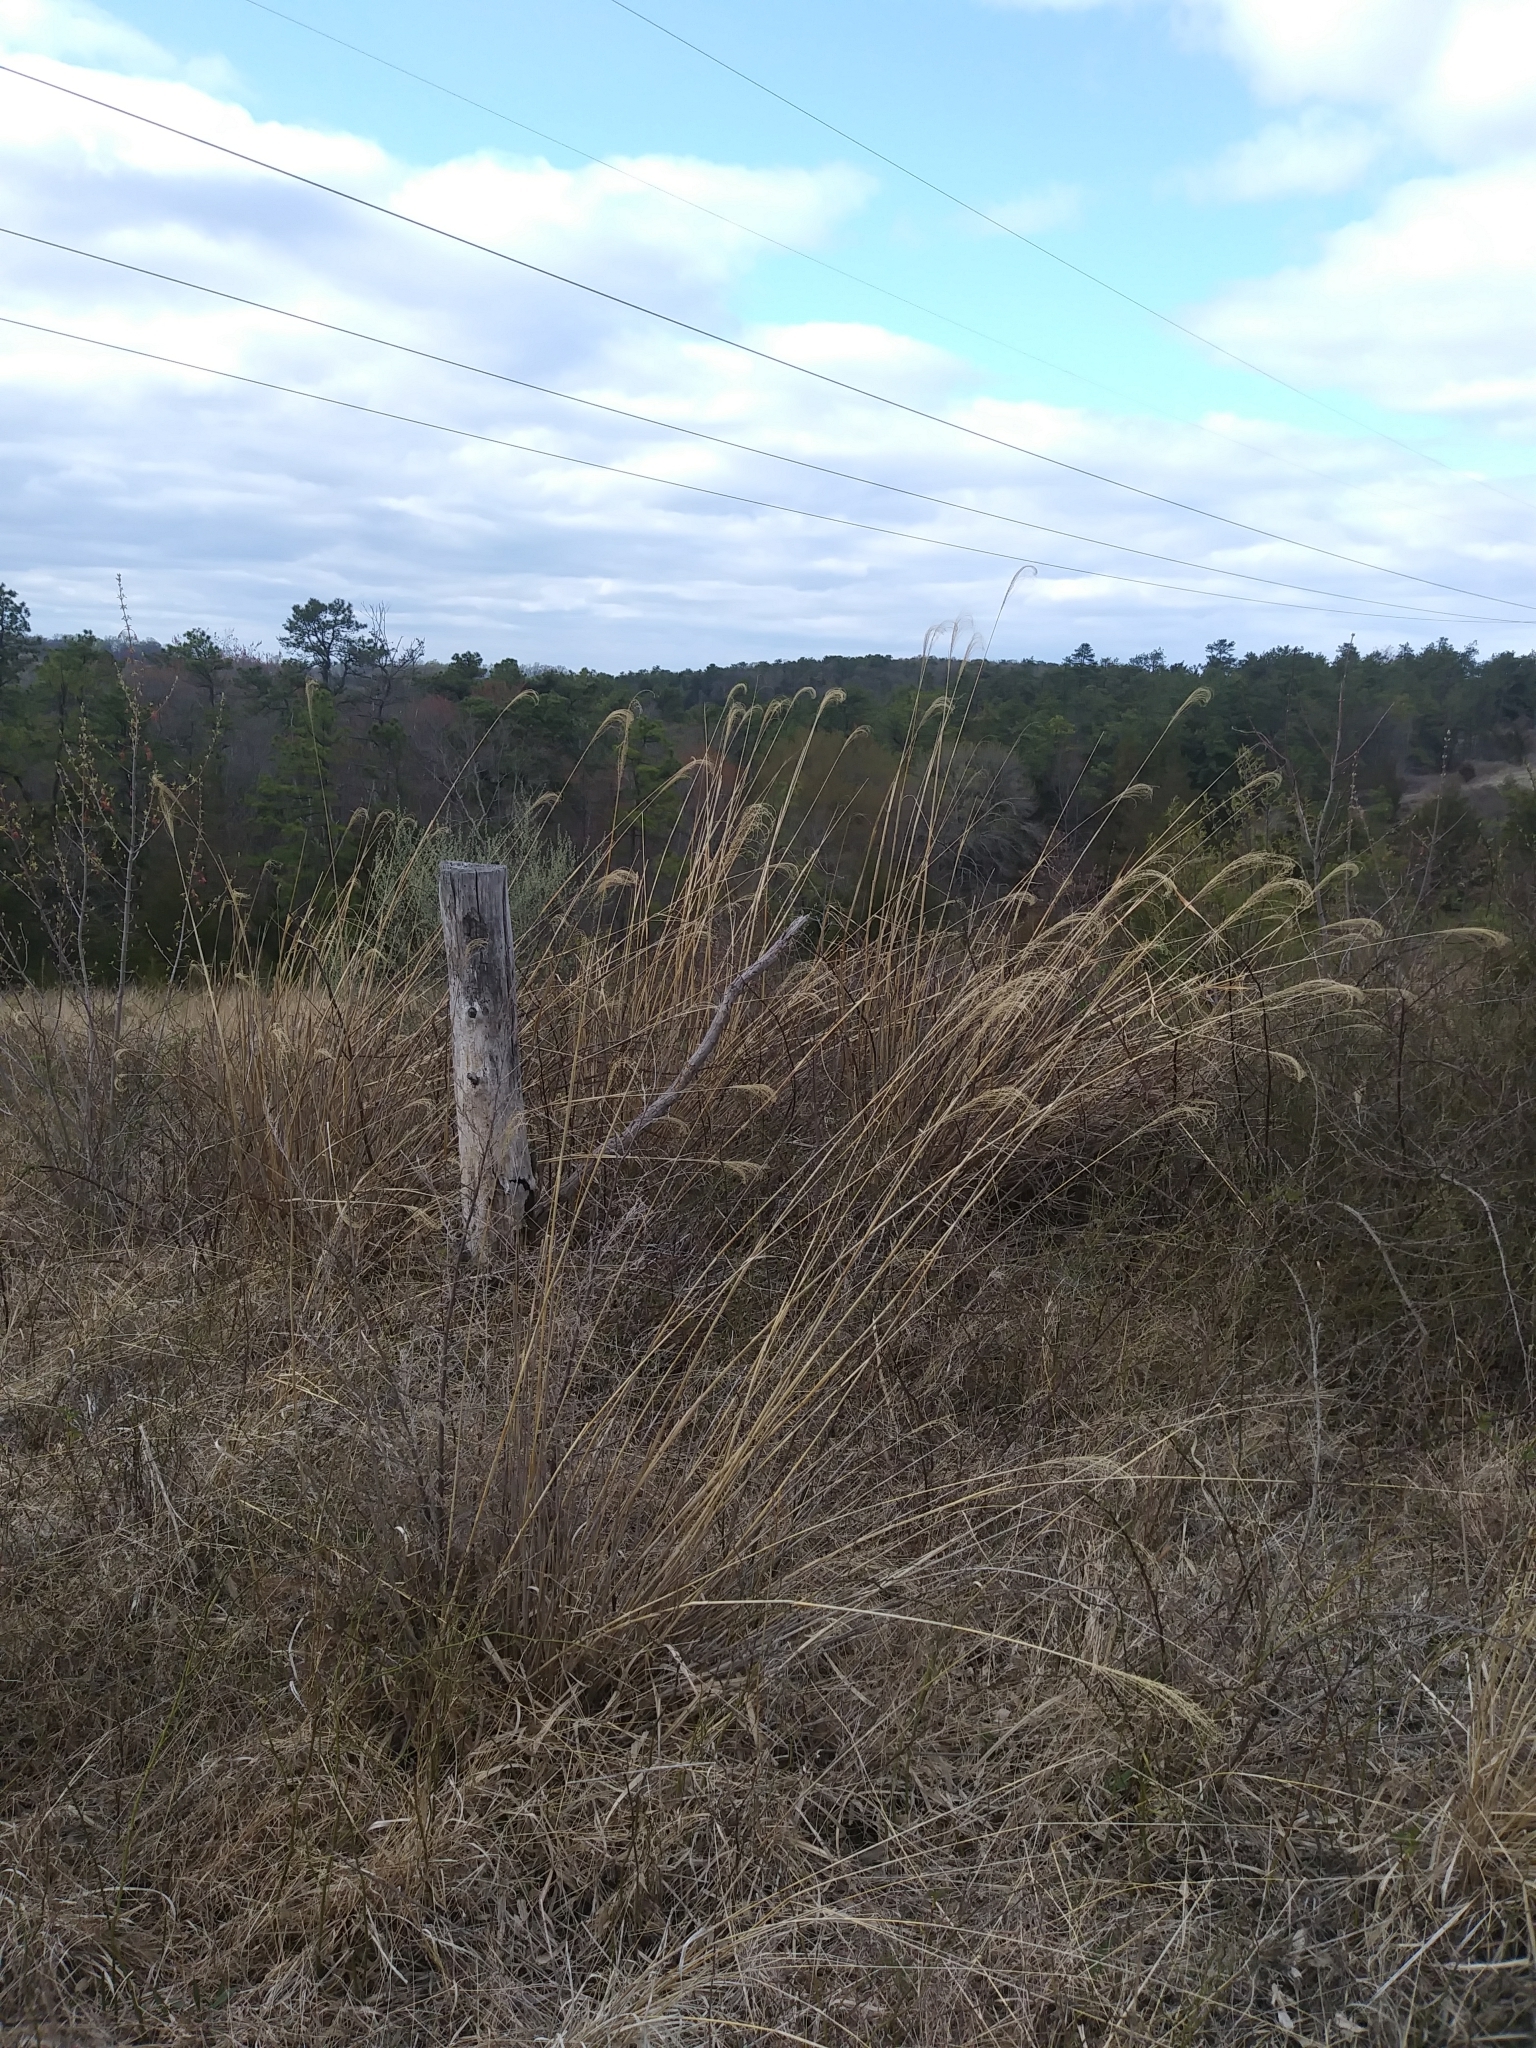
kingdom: Plantae
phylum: Tracheophyta
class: Liliopsida
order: Poales
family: Poaceae
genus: Miscanthus
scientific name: Miscanthus sinensis
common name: Chinese silvergrass
